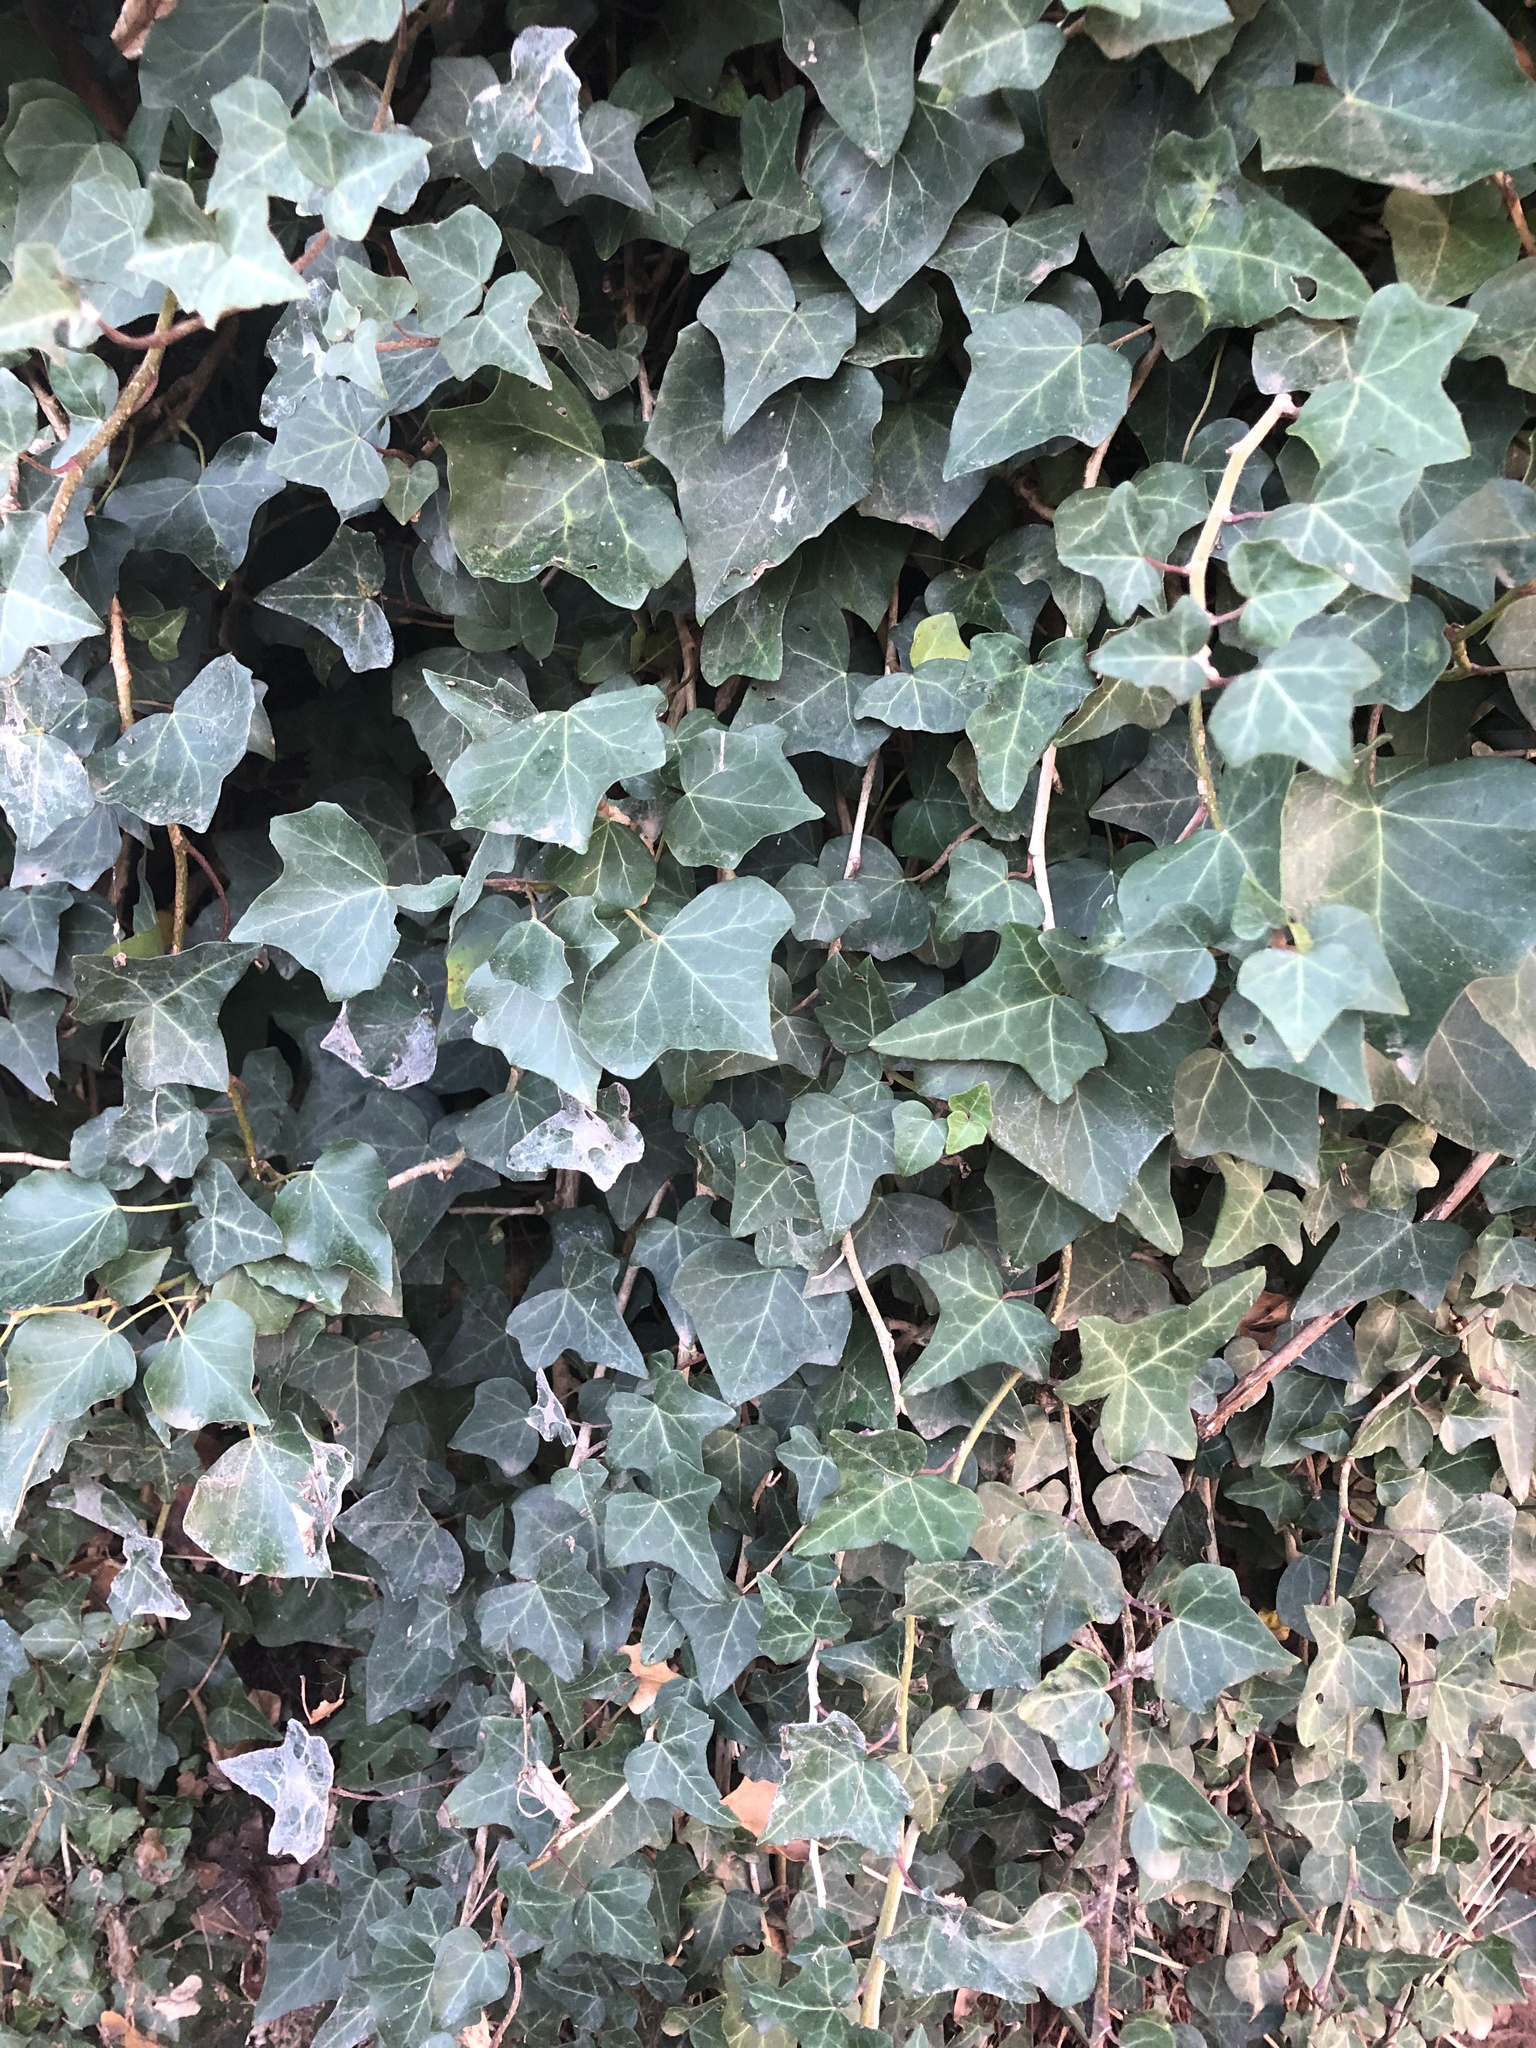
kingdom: Plantae
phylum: Tracheophyta
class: Magnoliopsida
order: Apiales
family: Araliaceae
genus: Hedera
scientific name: Hedera helix
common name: Ivy
